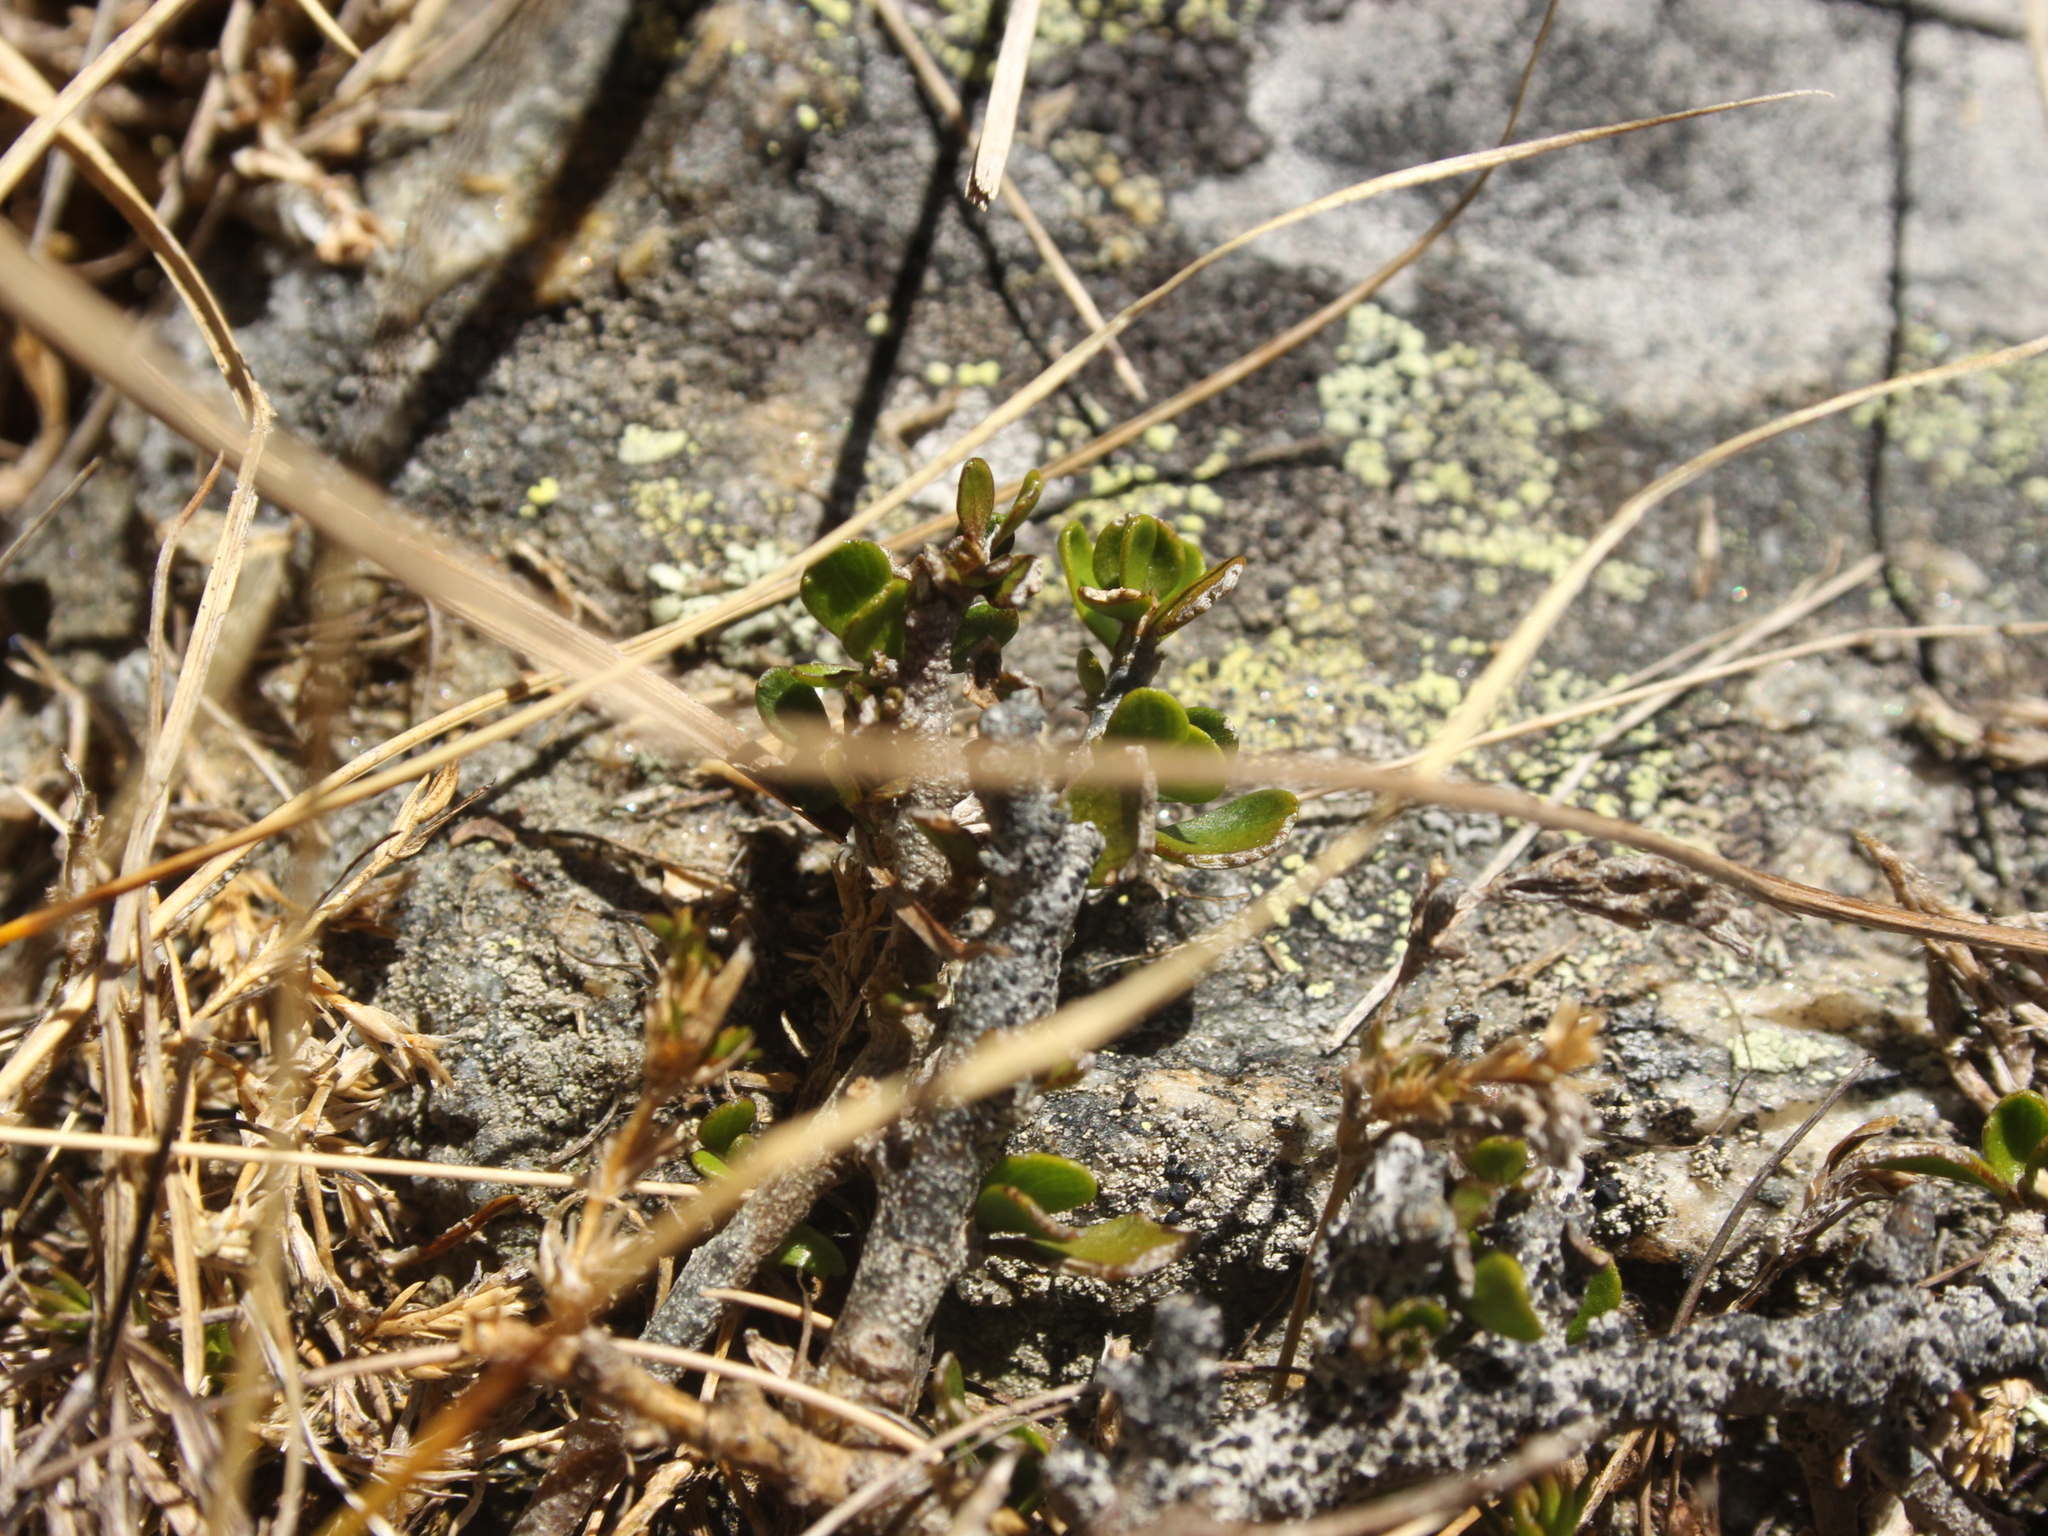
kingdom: Plantae
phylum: Tracheophyta
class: Magnoliopsida
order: Malpighiales
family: Violaceae
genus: Melicytus
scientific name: Melicytus alpinus
